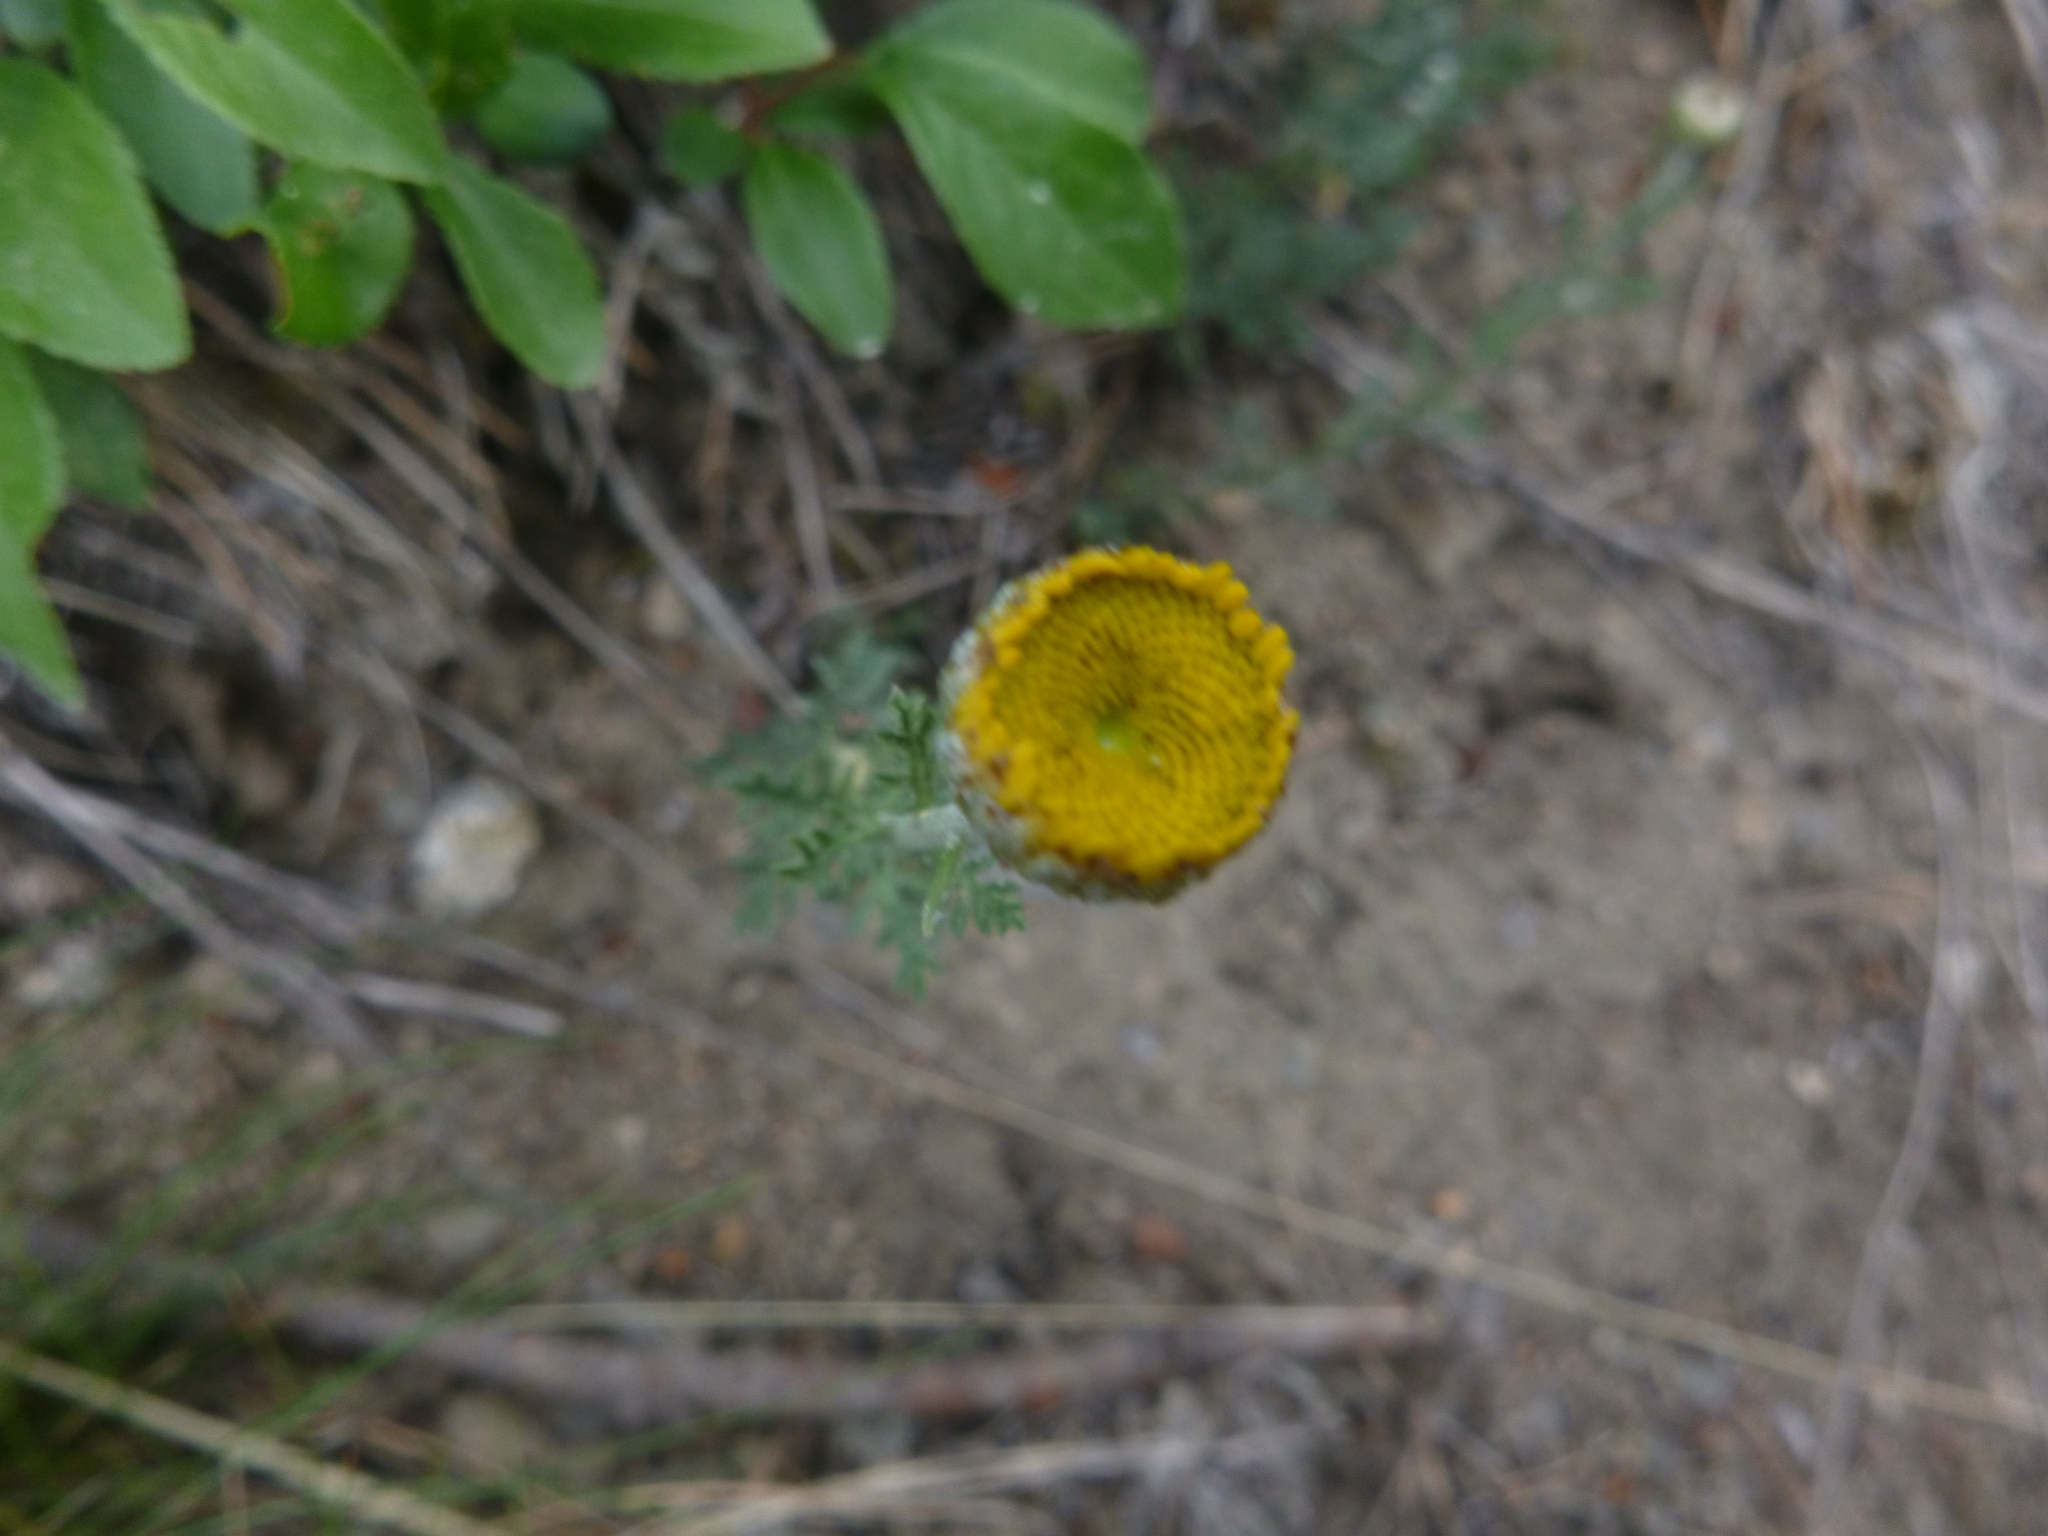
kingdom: Plantae
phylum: Tracheophyta
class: Magnoliopsida
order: Asterales
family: Asteraceae
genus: Cota
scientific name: Cota tinctoria
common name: Golden chamomile
